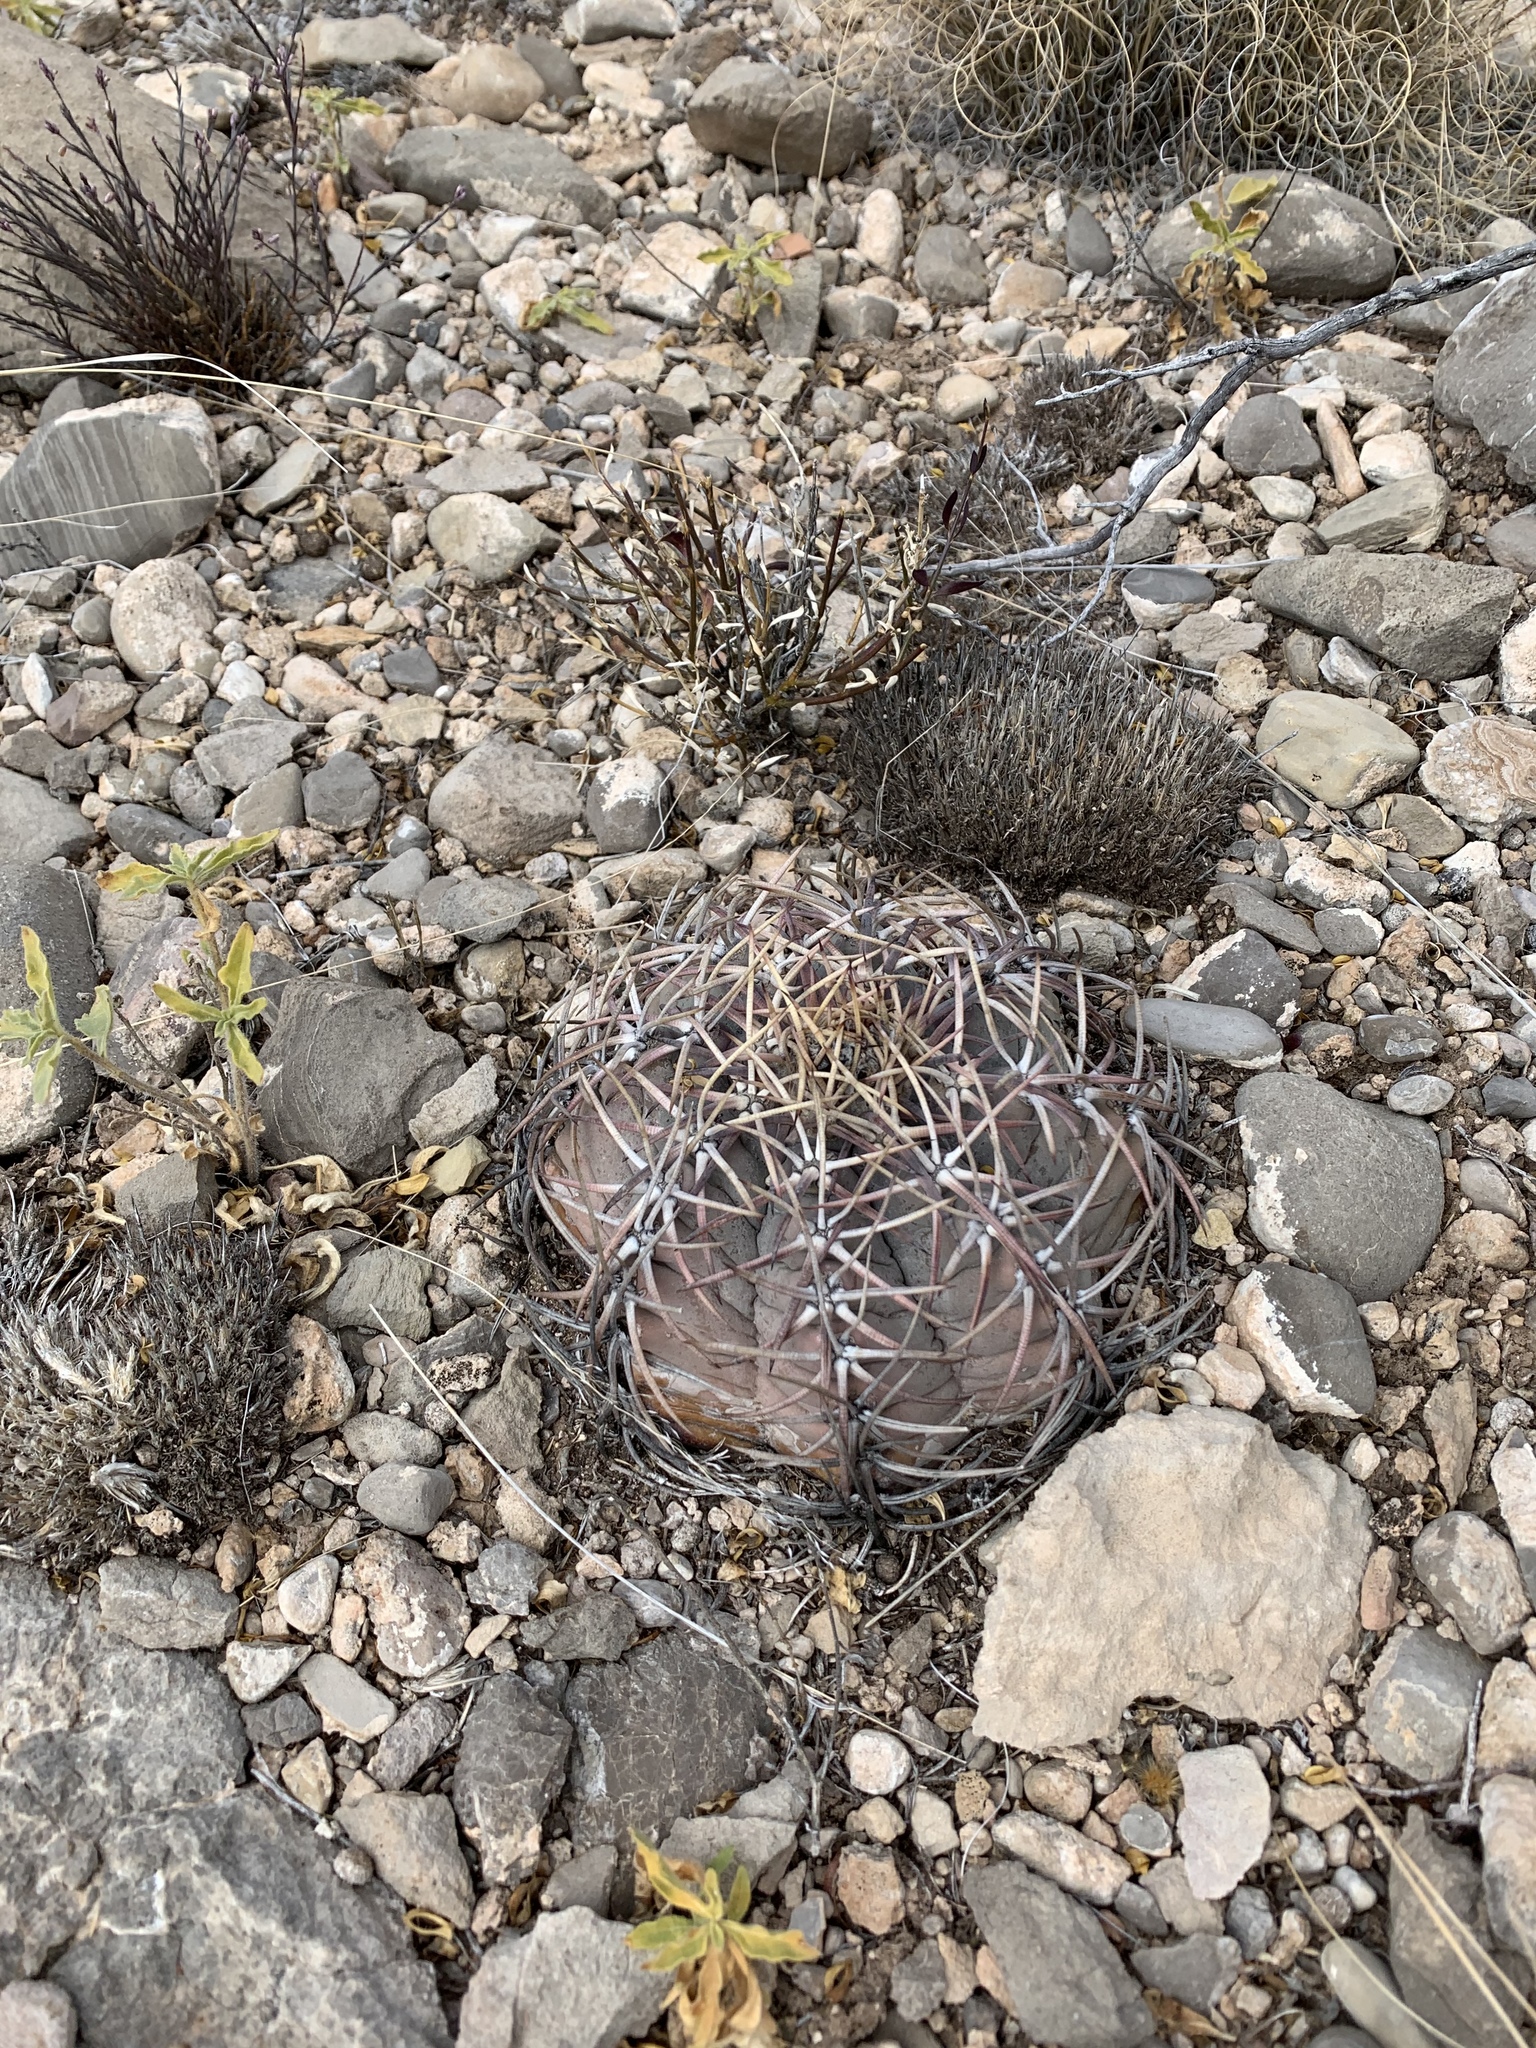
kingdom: Plantae
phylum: Tracheophyta
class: Magnoliopsida
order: Caryophyllales
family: Cactaceae
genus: Echinocactus
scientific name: Echinocactus horizonthalonius
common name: Devilshead
